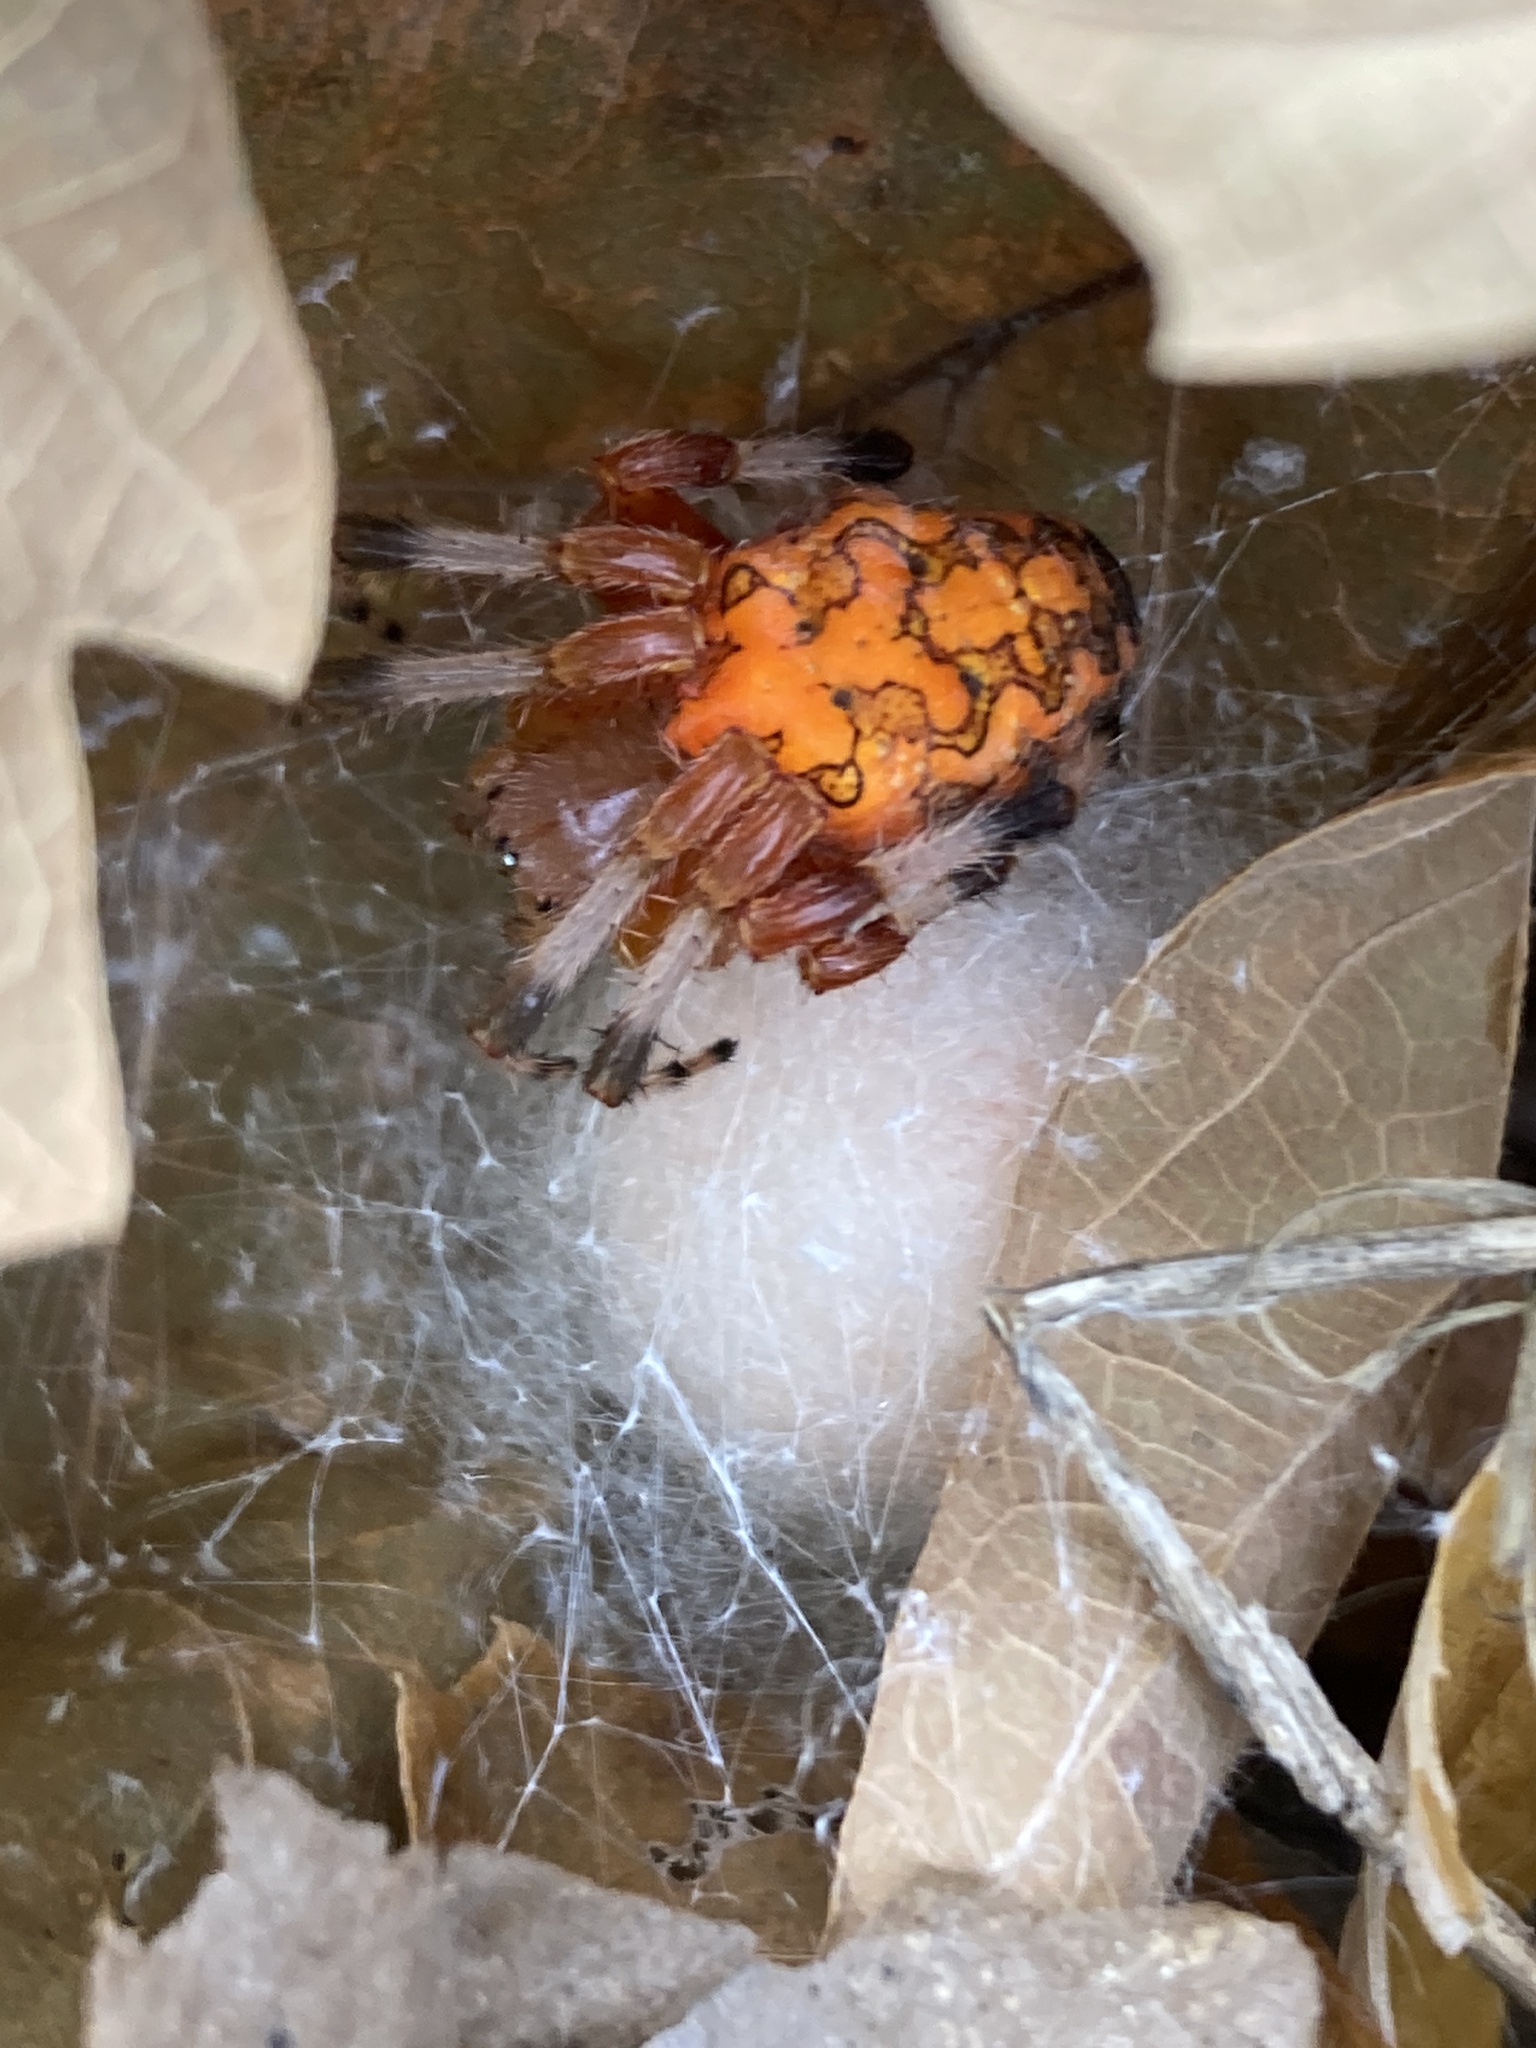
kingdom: Animalia
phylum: Arthropoda
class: Arachnida
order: Araneae
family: Araneidae
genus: Araneus
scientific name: Araneus marmoreus
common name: Marbled orbweaver
